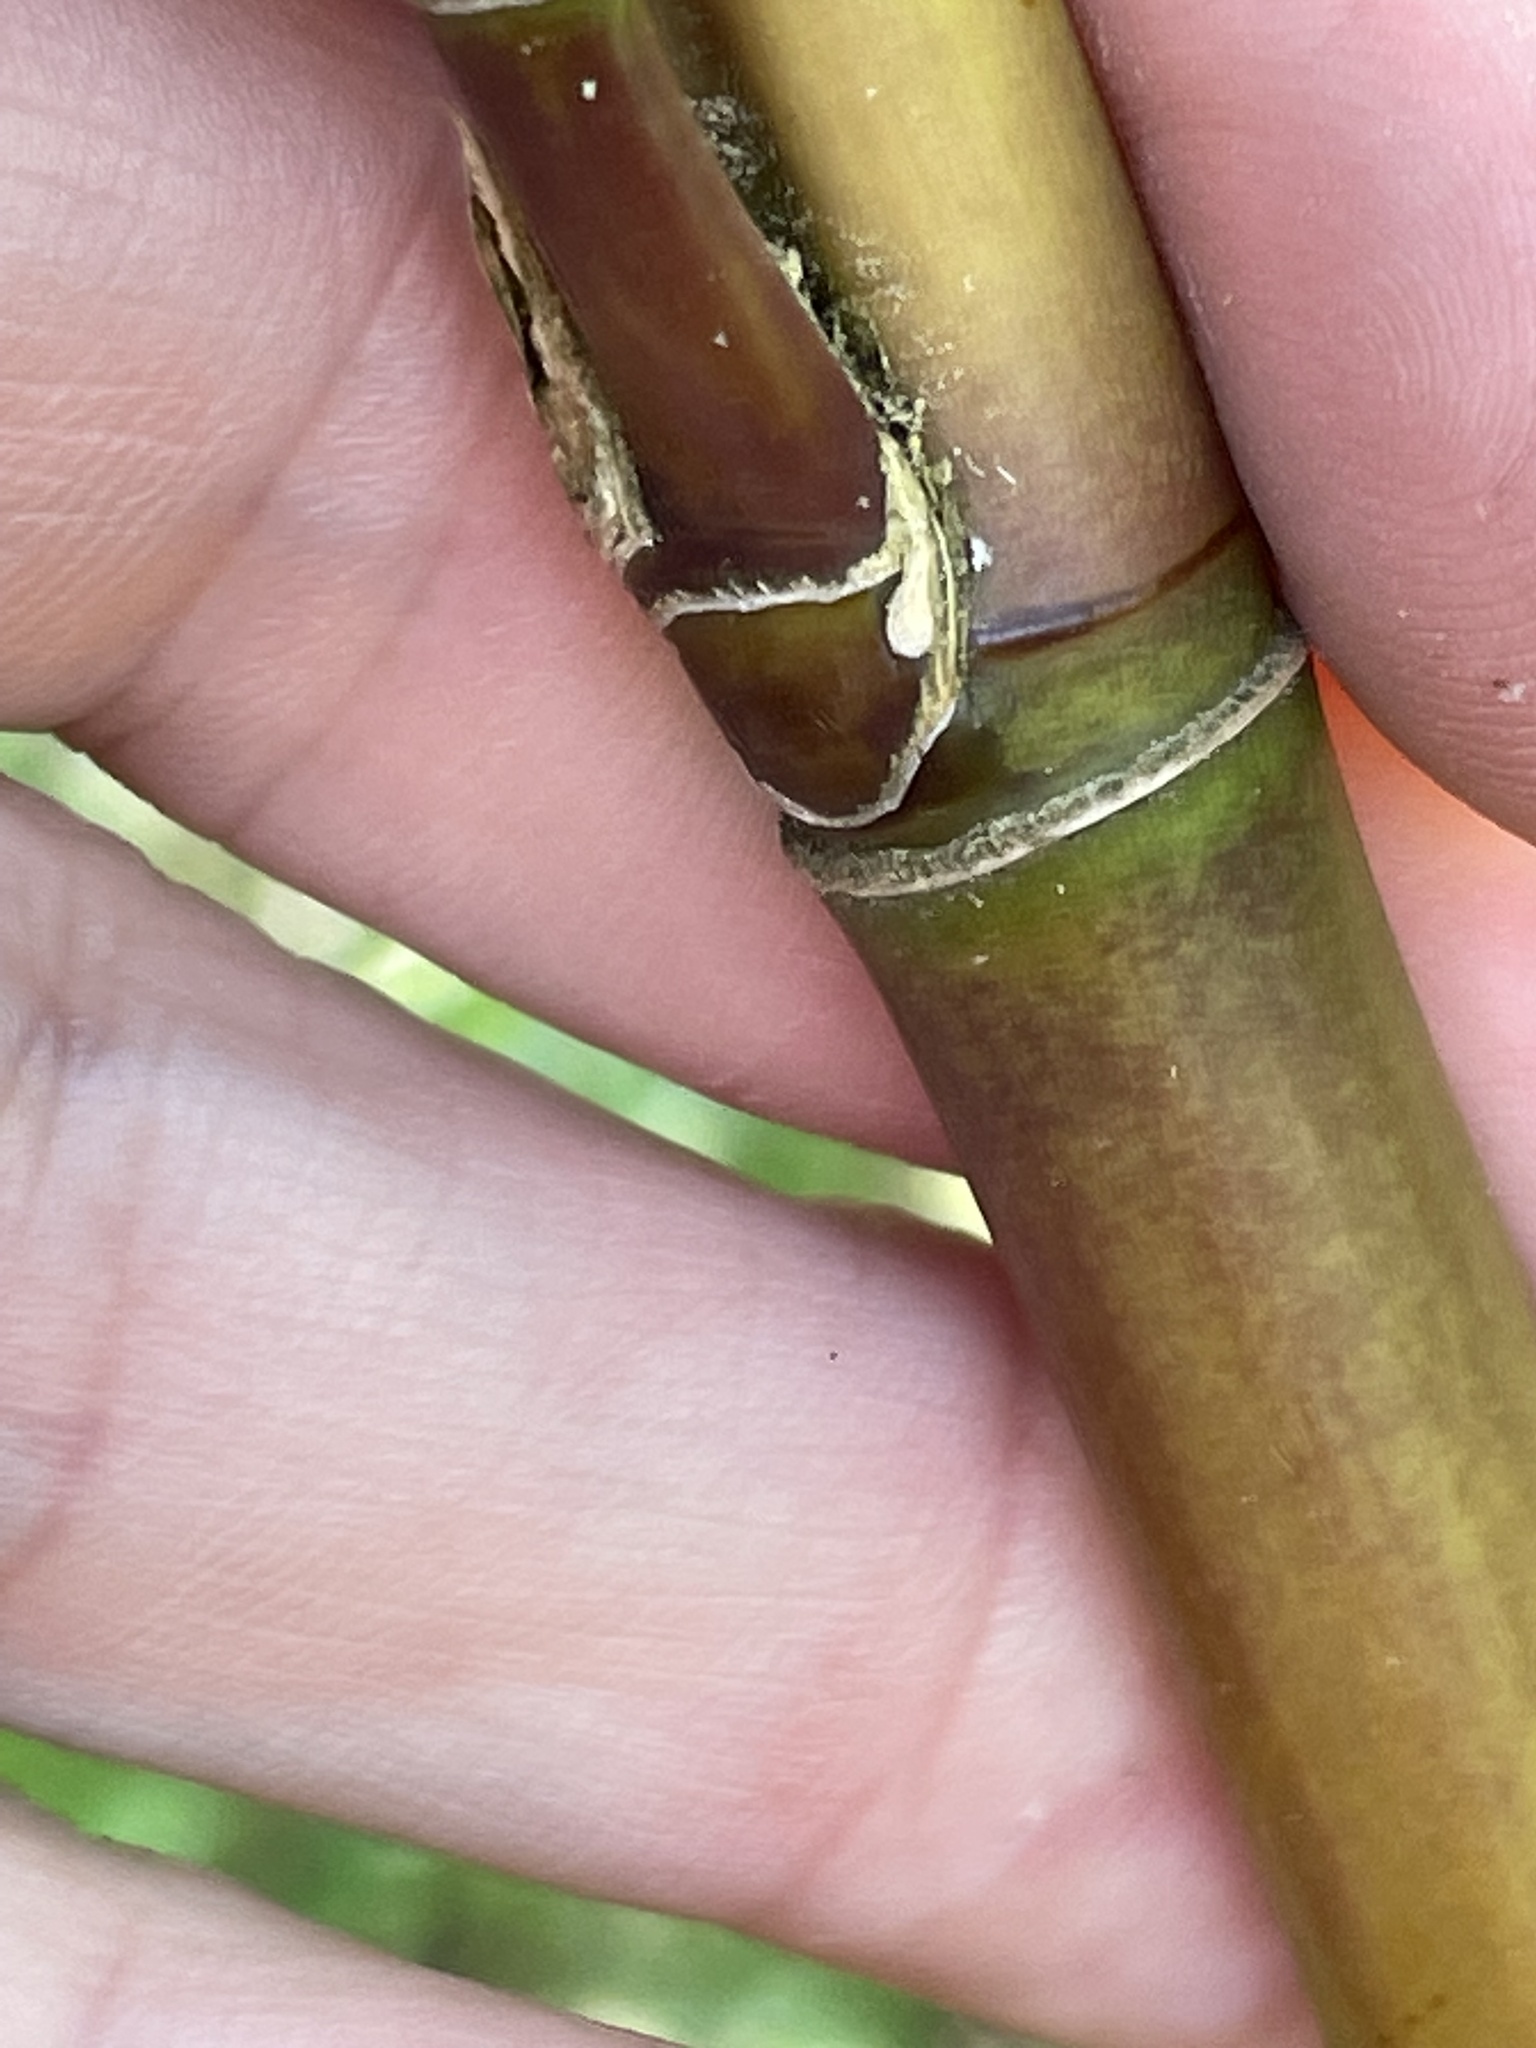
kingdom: Plantae
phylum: Tracheophyta
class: Liliopsida
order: Poales
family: Poaceae
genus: Arundinaria
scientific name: Arundinaria gigantea
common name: Giant cane
